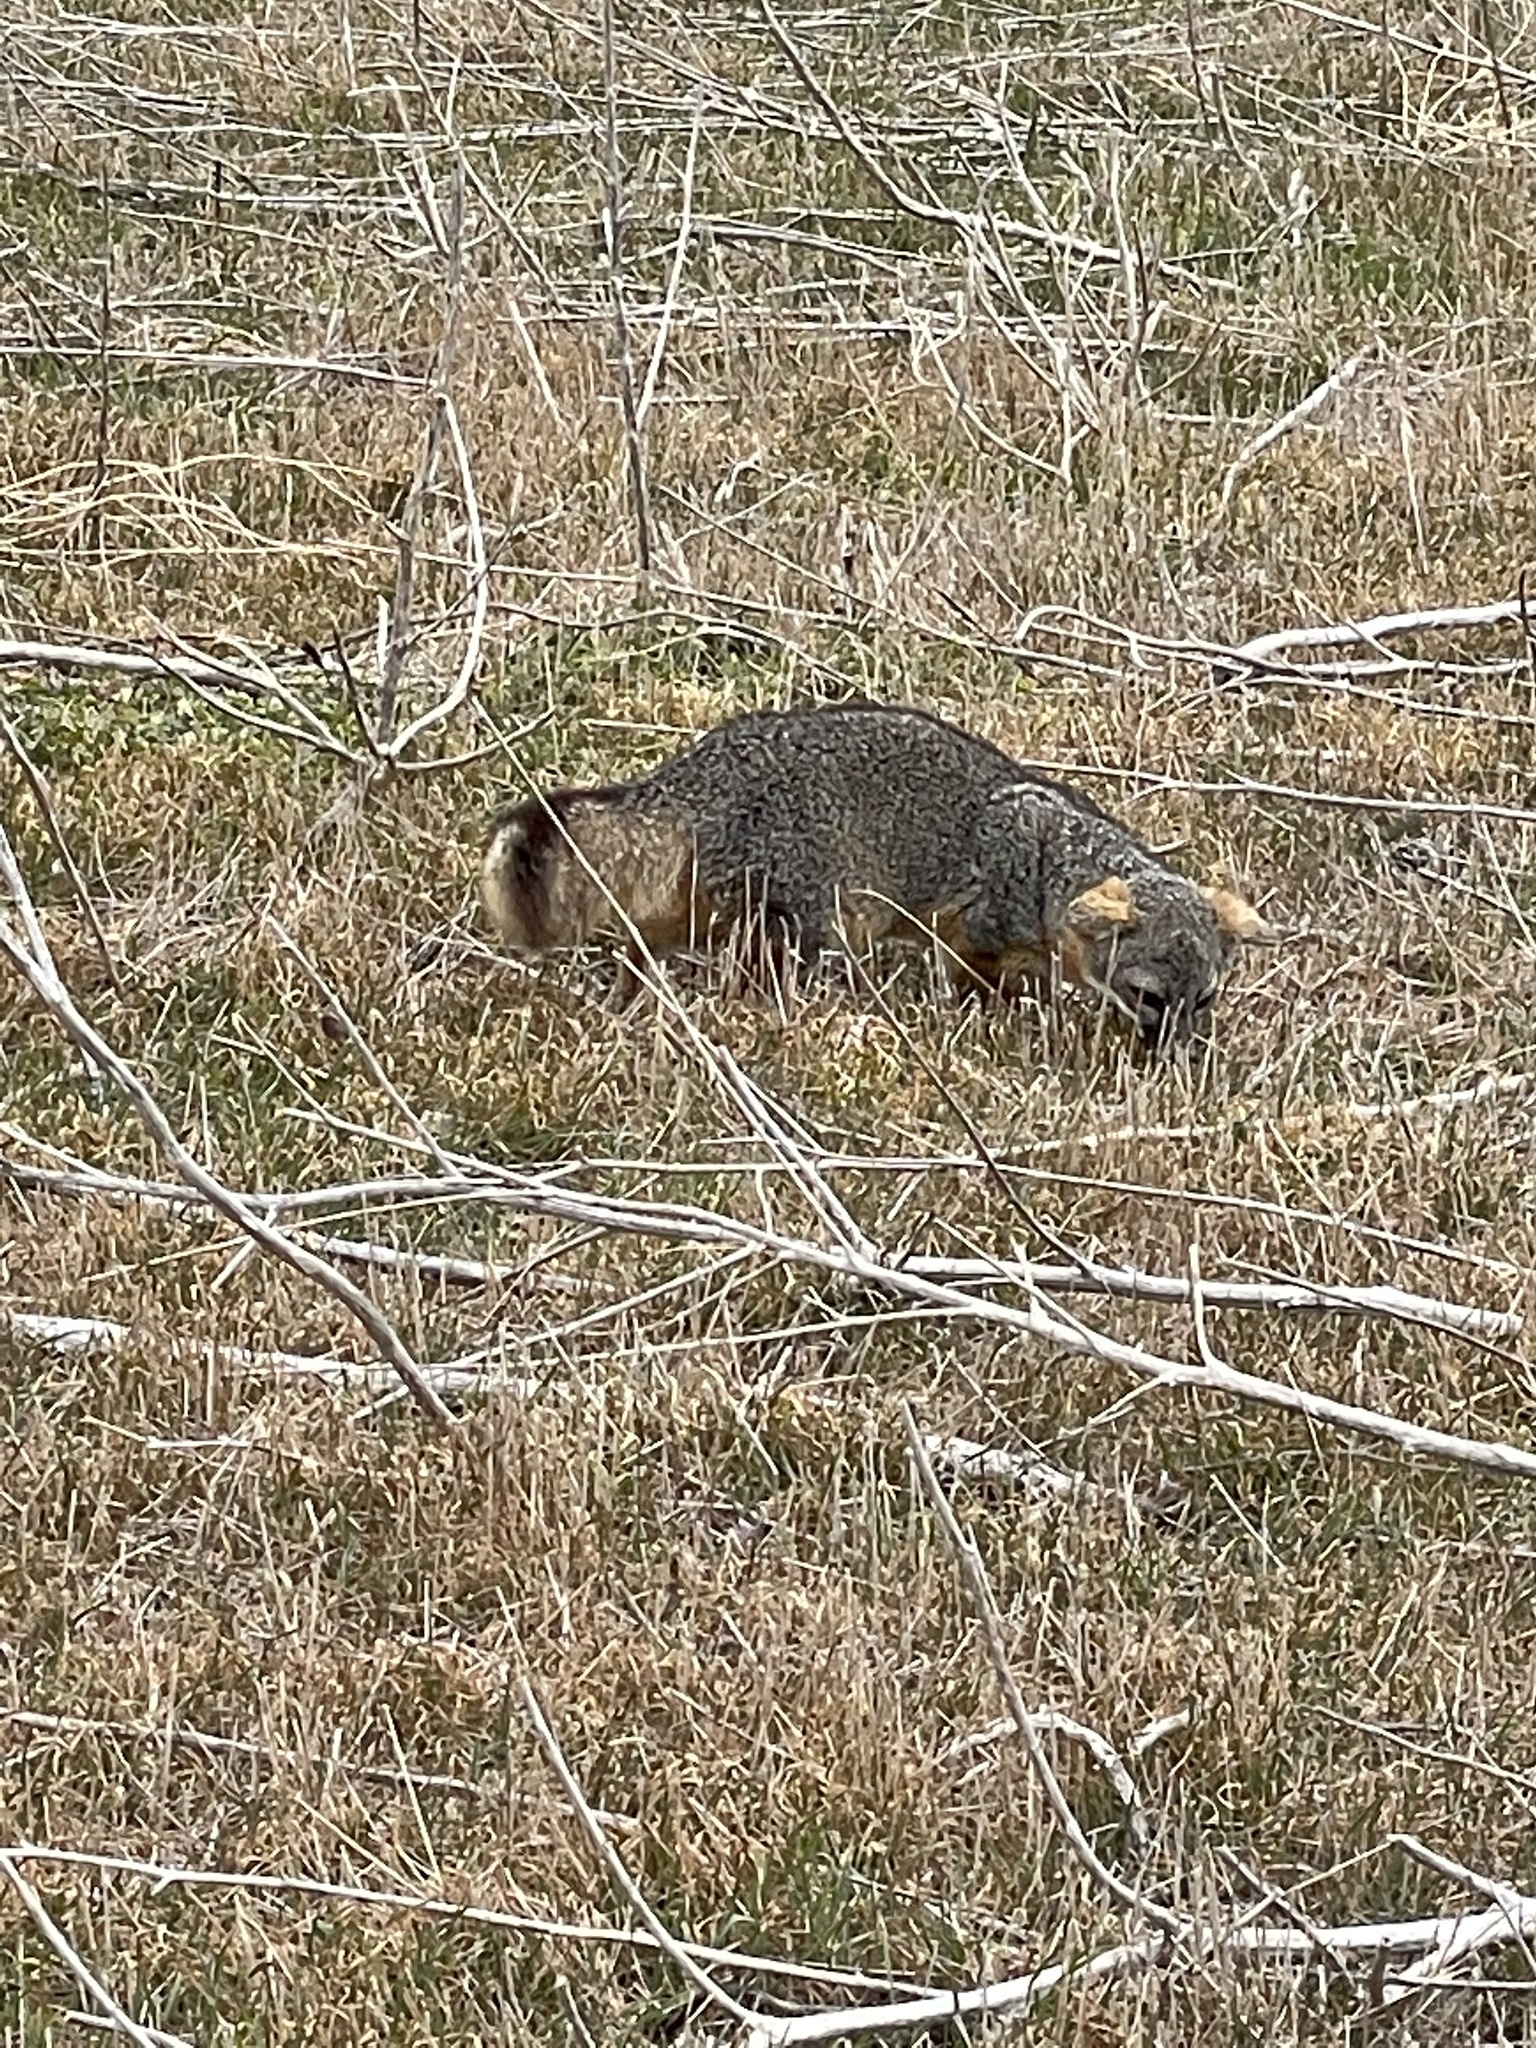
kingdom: Animalia
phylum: Chordata
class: Mammalia
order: Carnivora
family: Canidae
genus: Urocyon
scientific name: Urocyon littoralis
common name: Island gray fox
